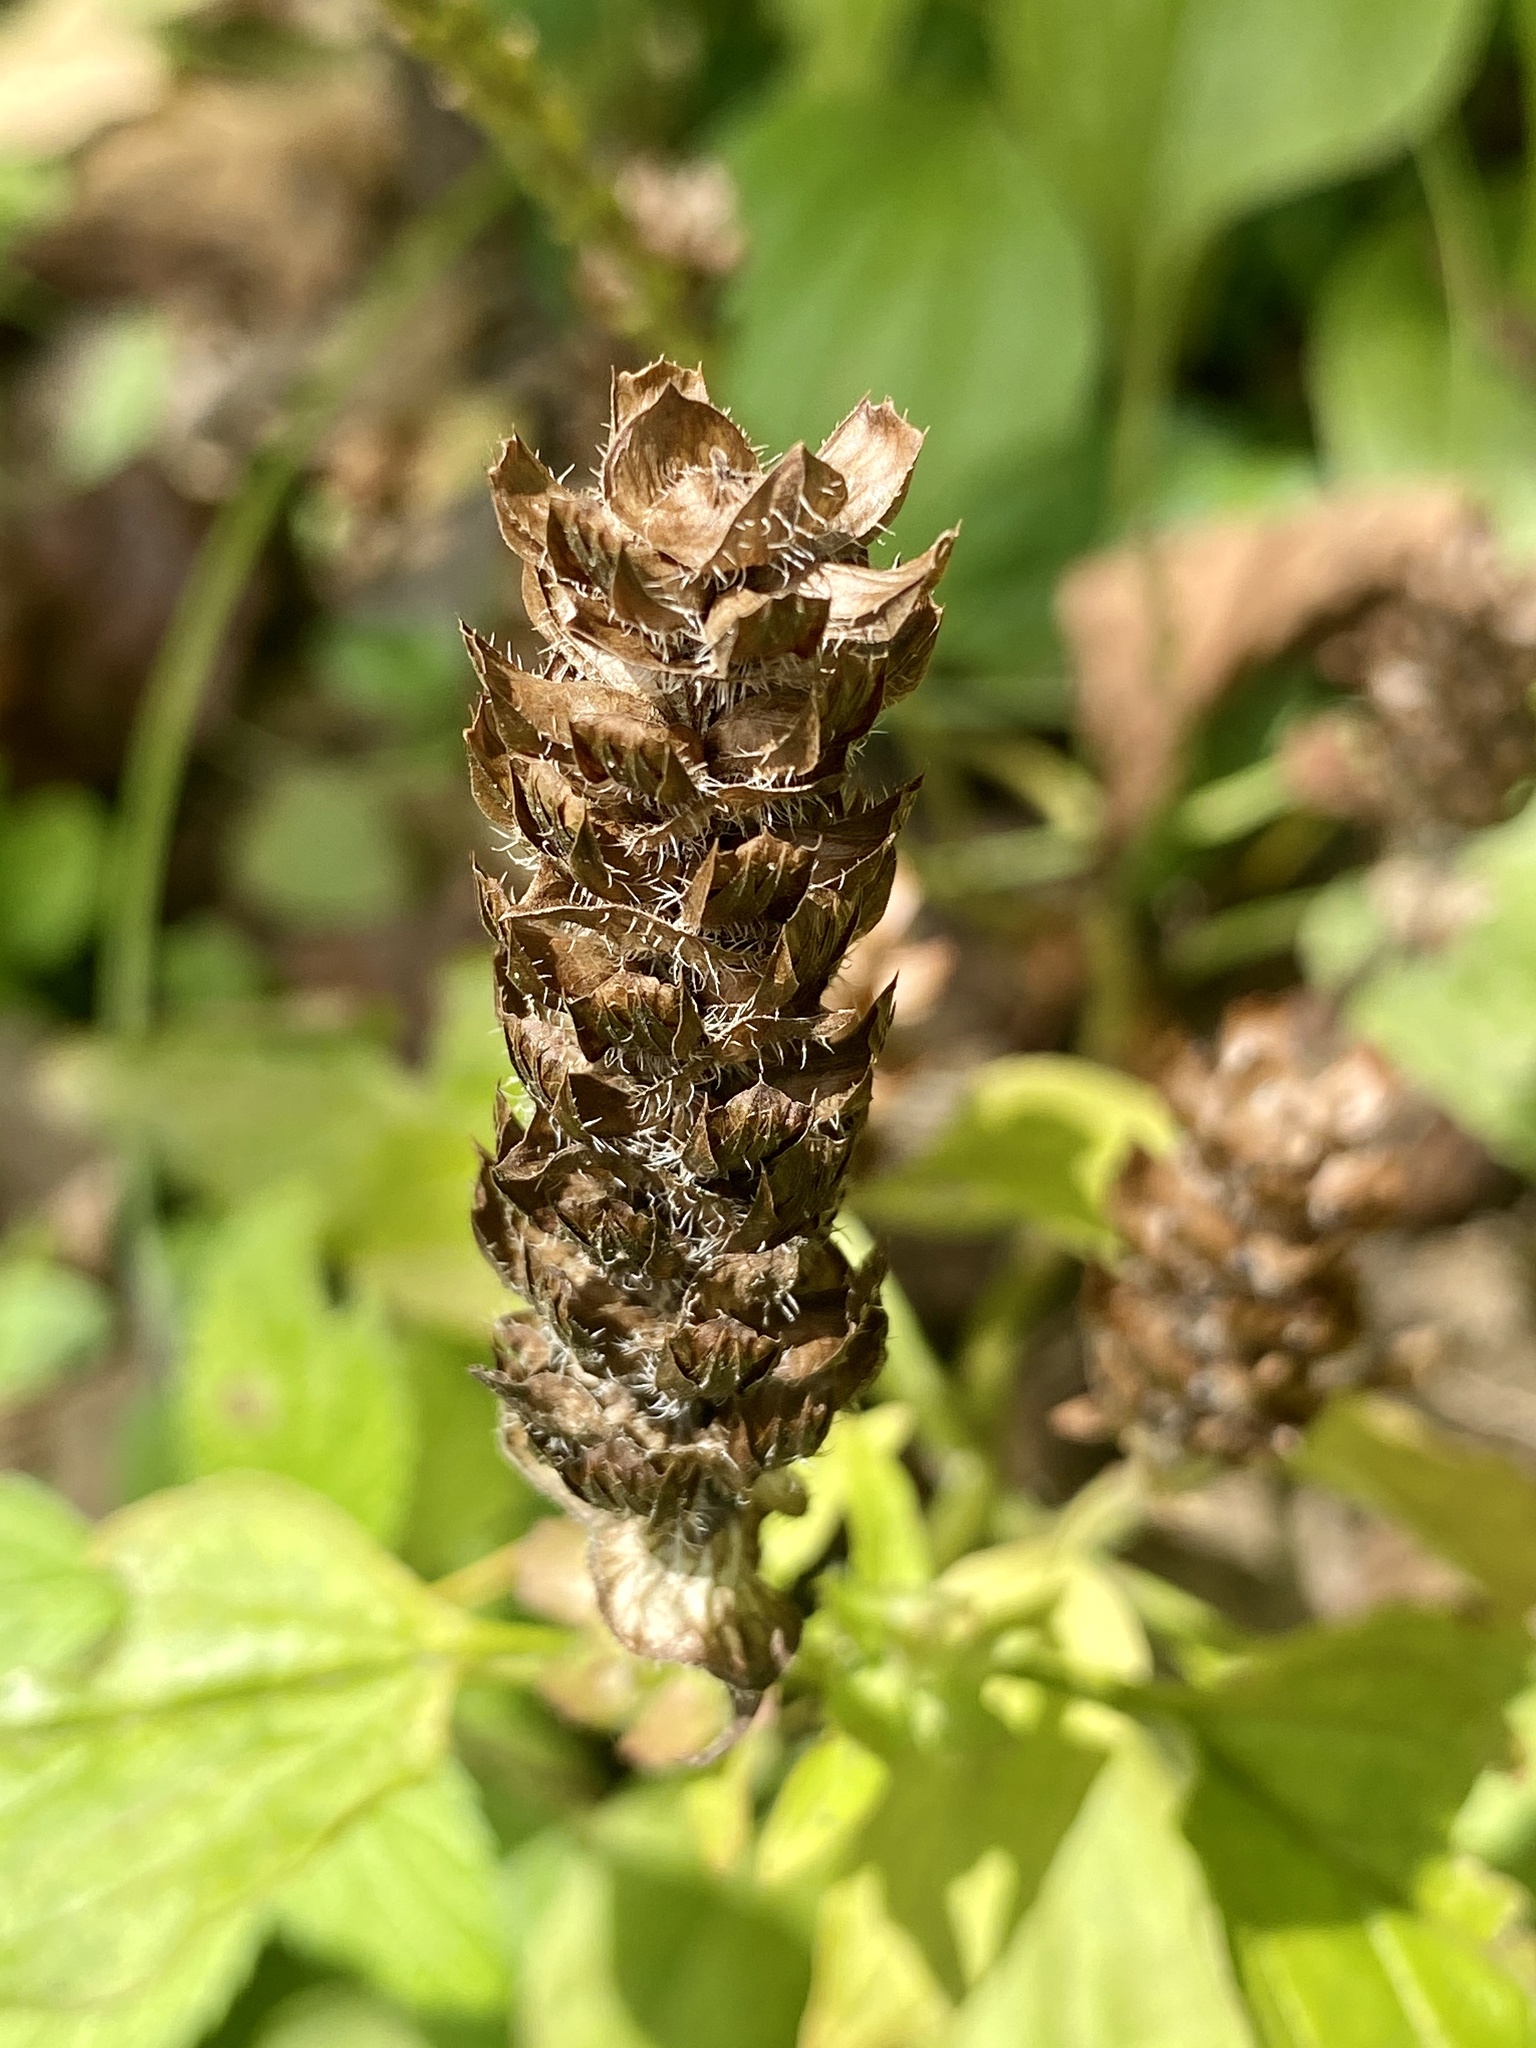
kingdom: Plantae
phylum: Tracheophyta
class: Magnoliopsida
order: Lamiales
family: Lamiaceae
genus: Prunella
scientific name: Prunella vulgaris
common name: Heal-all
